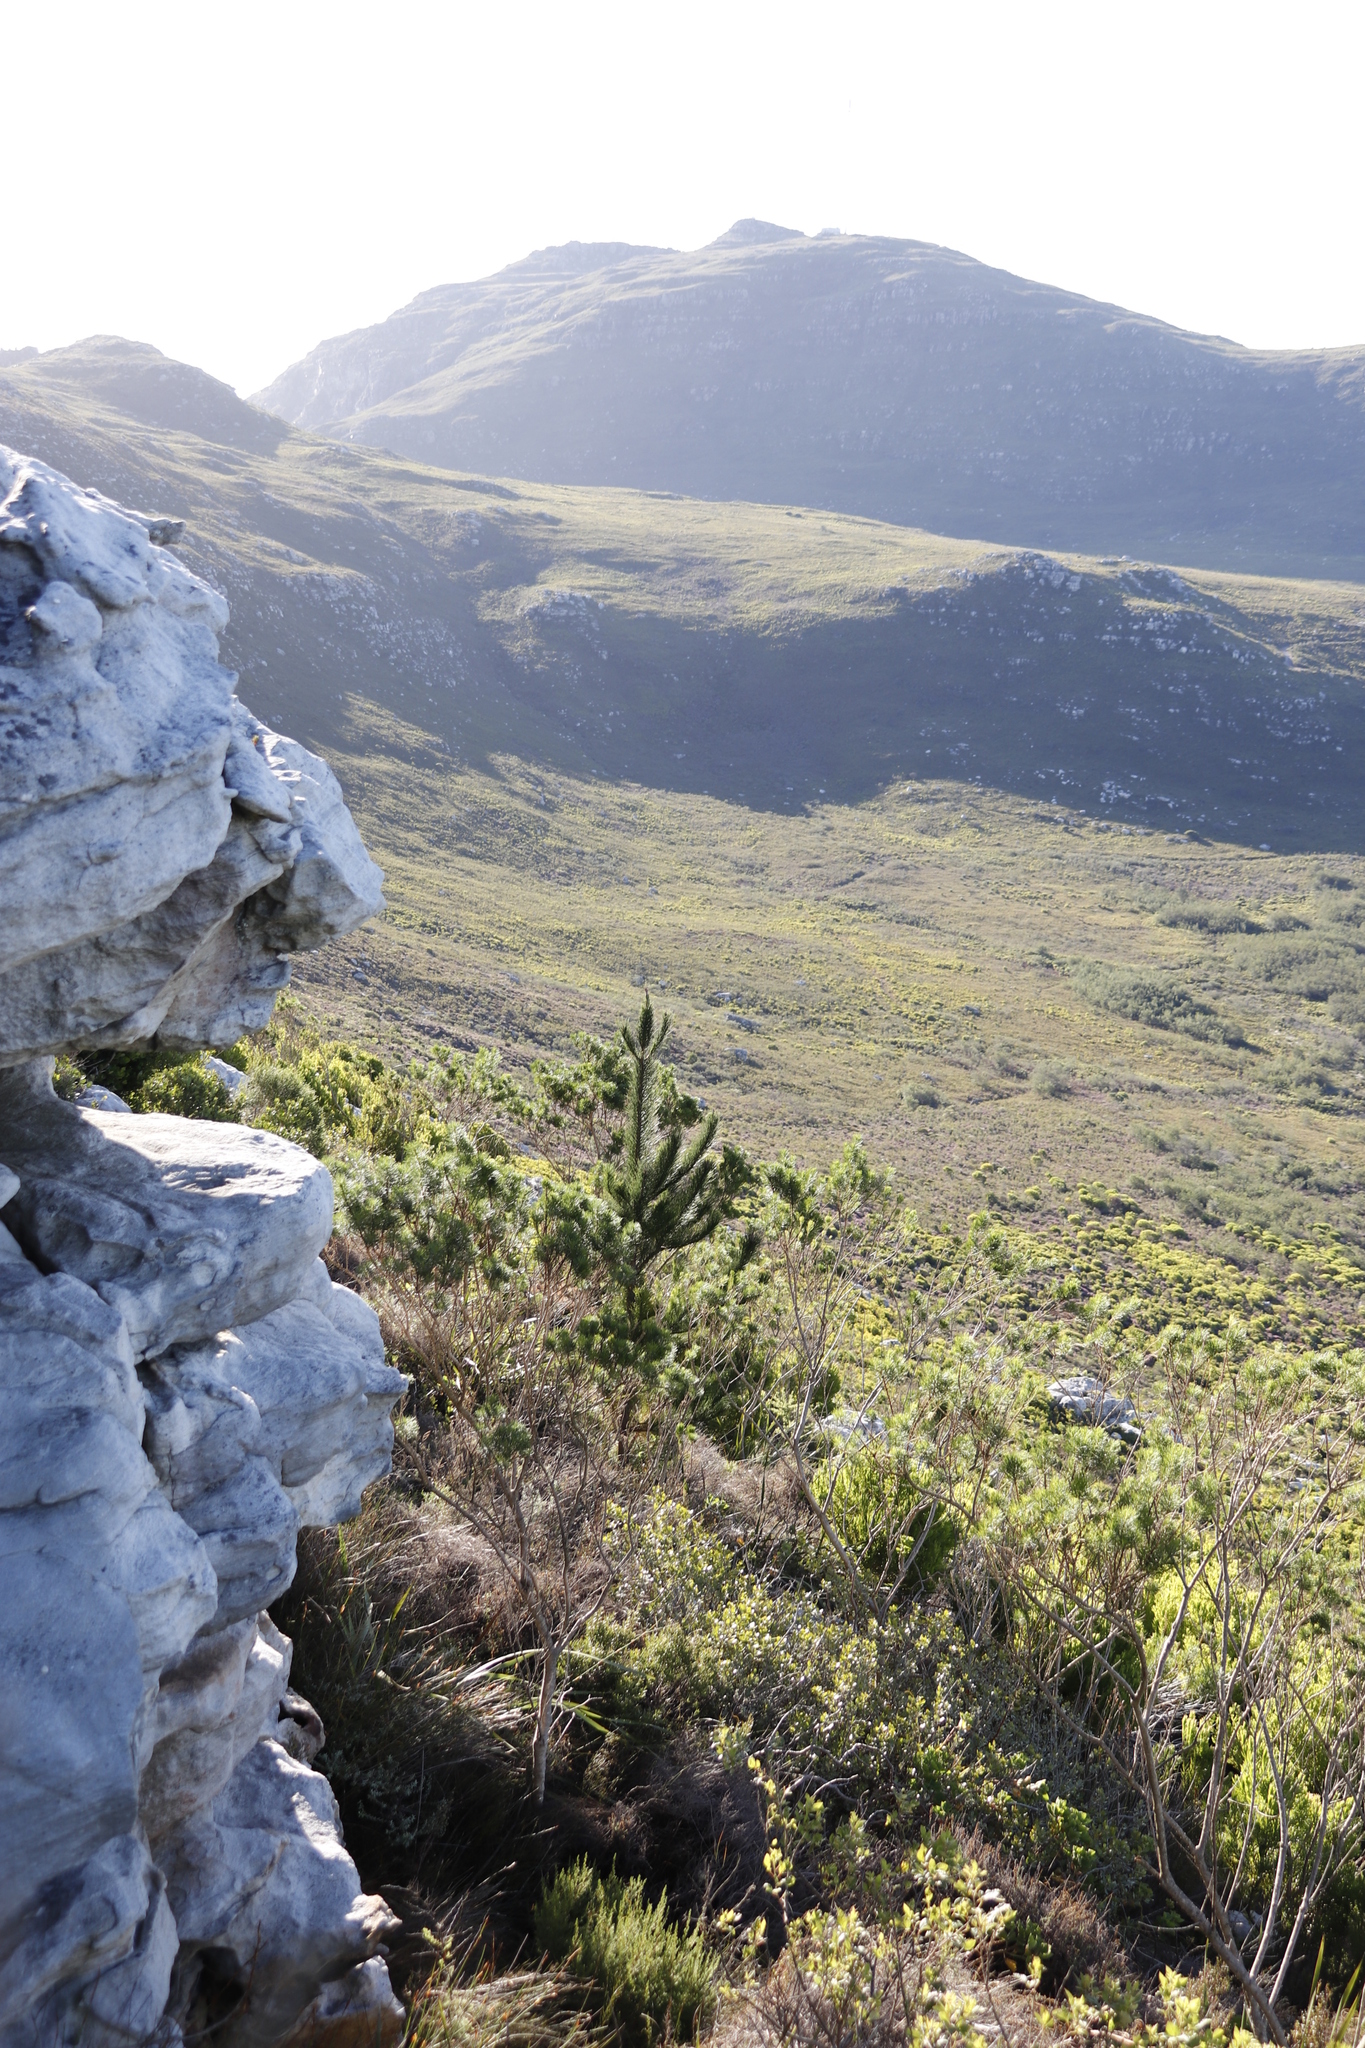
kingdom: Plantae
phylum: Tracheophyta
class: Pinopsida
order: Pinales
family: Pinaceae
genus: Pinus
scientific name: Pinus radiata
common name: Monterey pine
